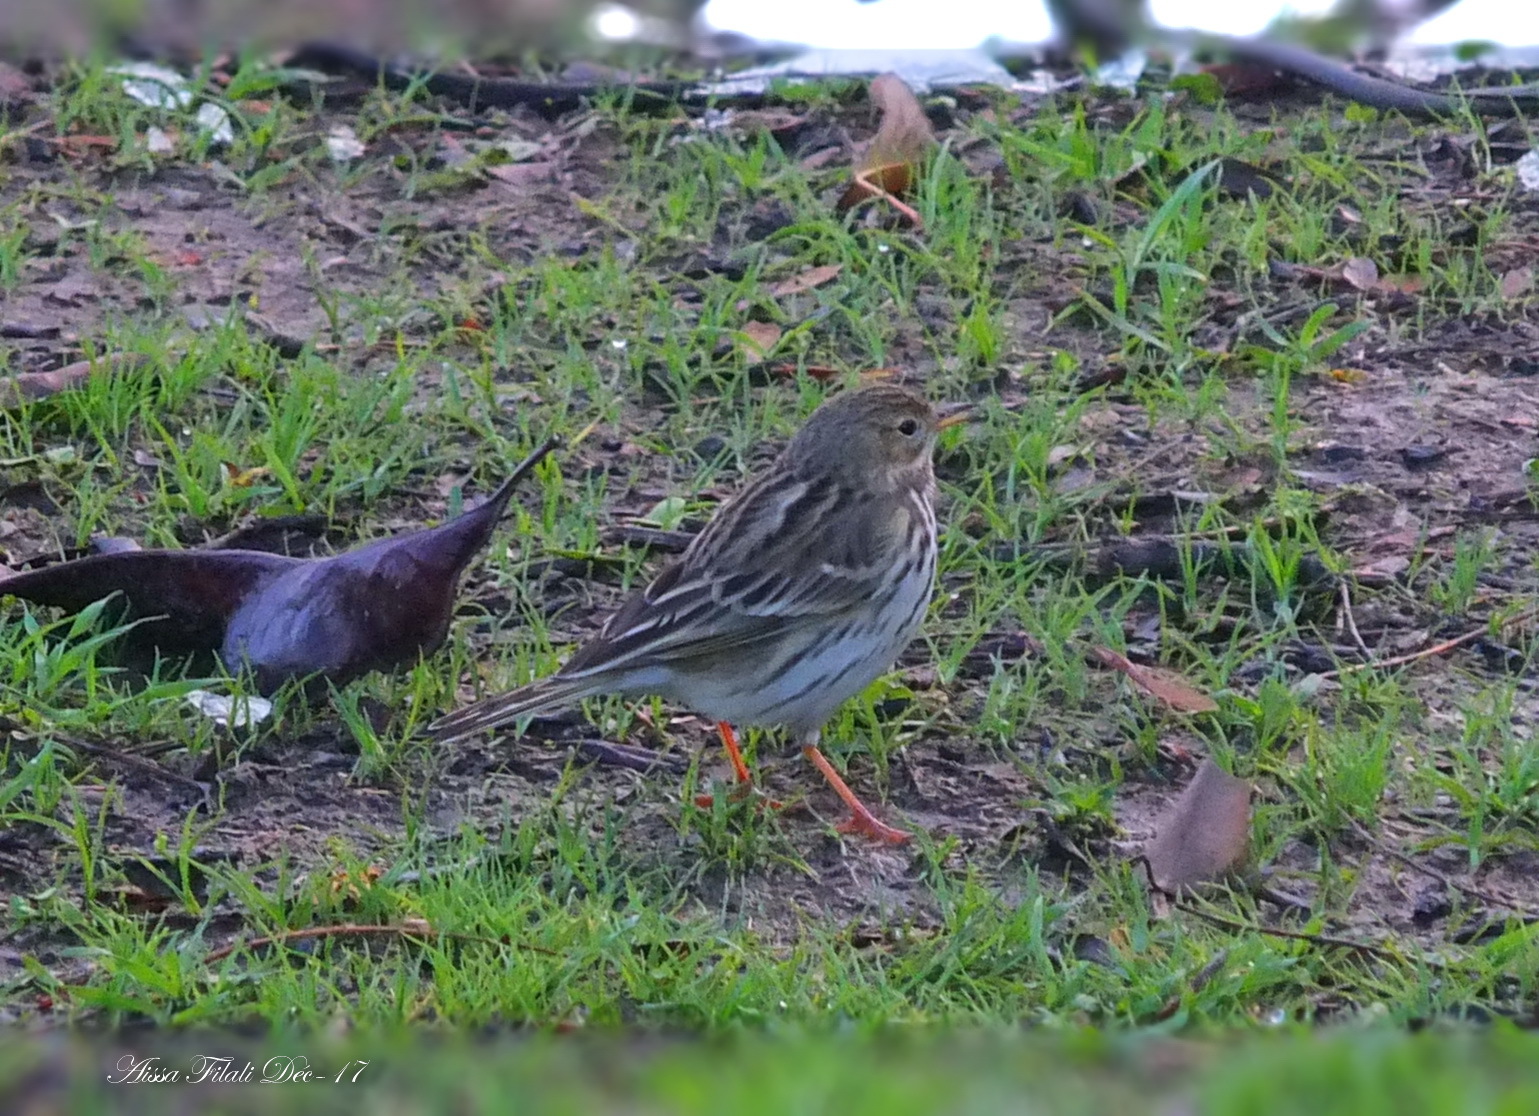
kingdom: Animalia
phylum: Chordata
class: Aves
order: Passeriformes
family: Motacillidae
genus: Anthus
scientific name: Anthus pratensis
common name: Meadow pipit
